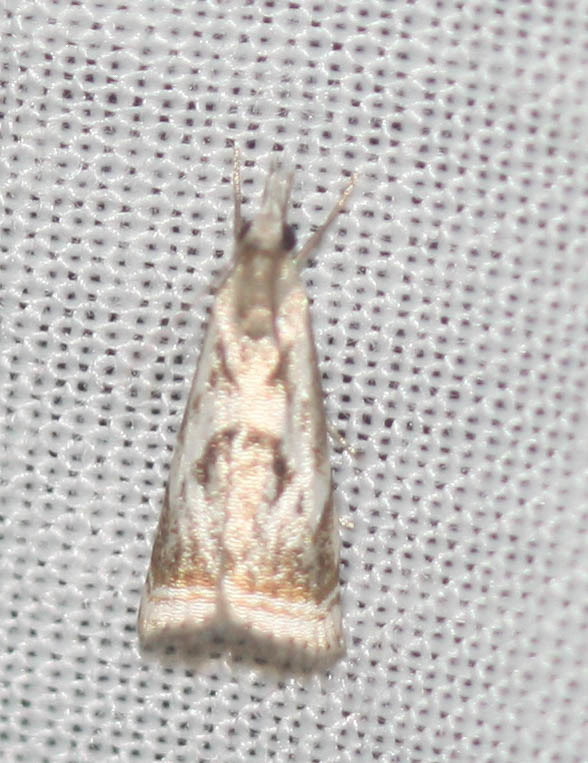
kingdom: Animalia
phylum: Arthropoda
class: Insecta
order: Lepidoptera
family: Crambidae
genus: Microcrambus
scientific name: Microcrambus elegans
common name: Elegant grass-veneer
